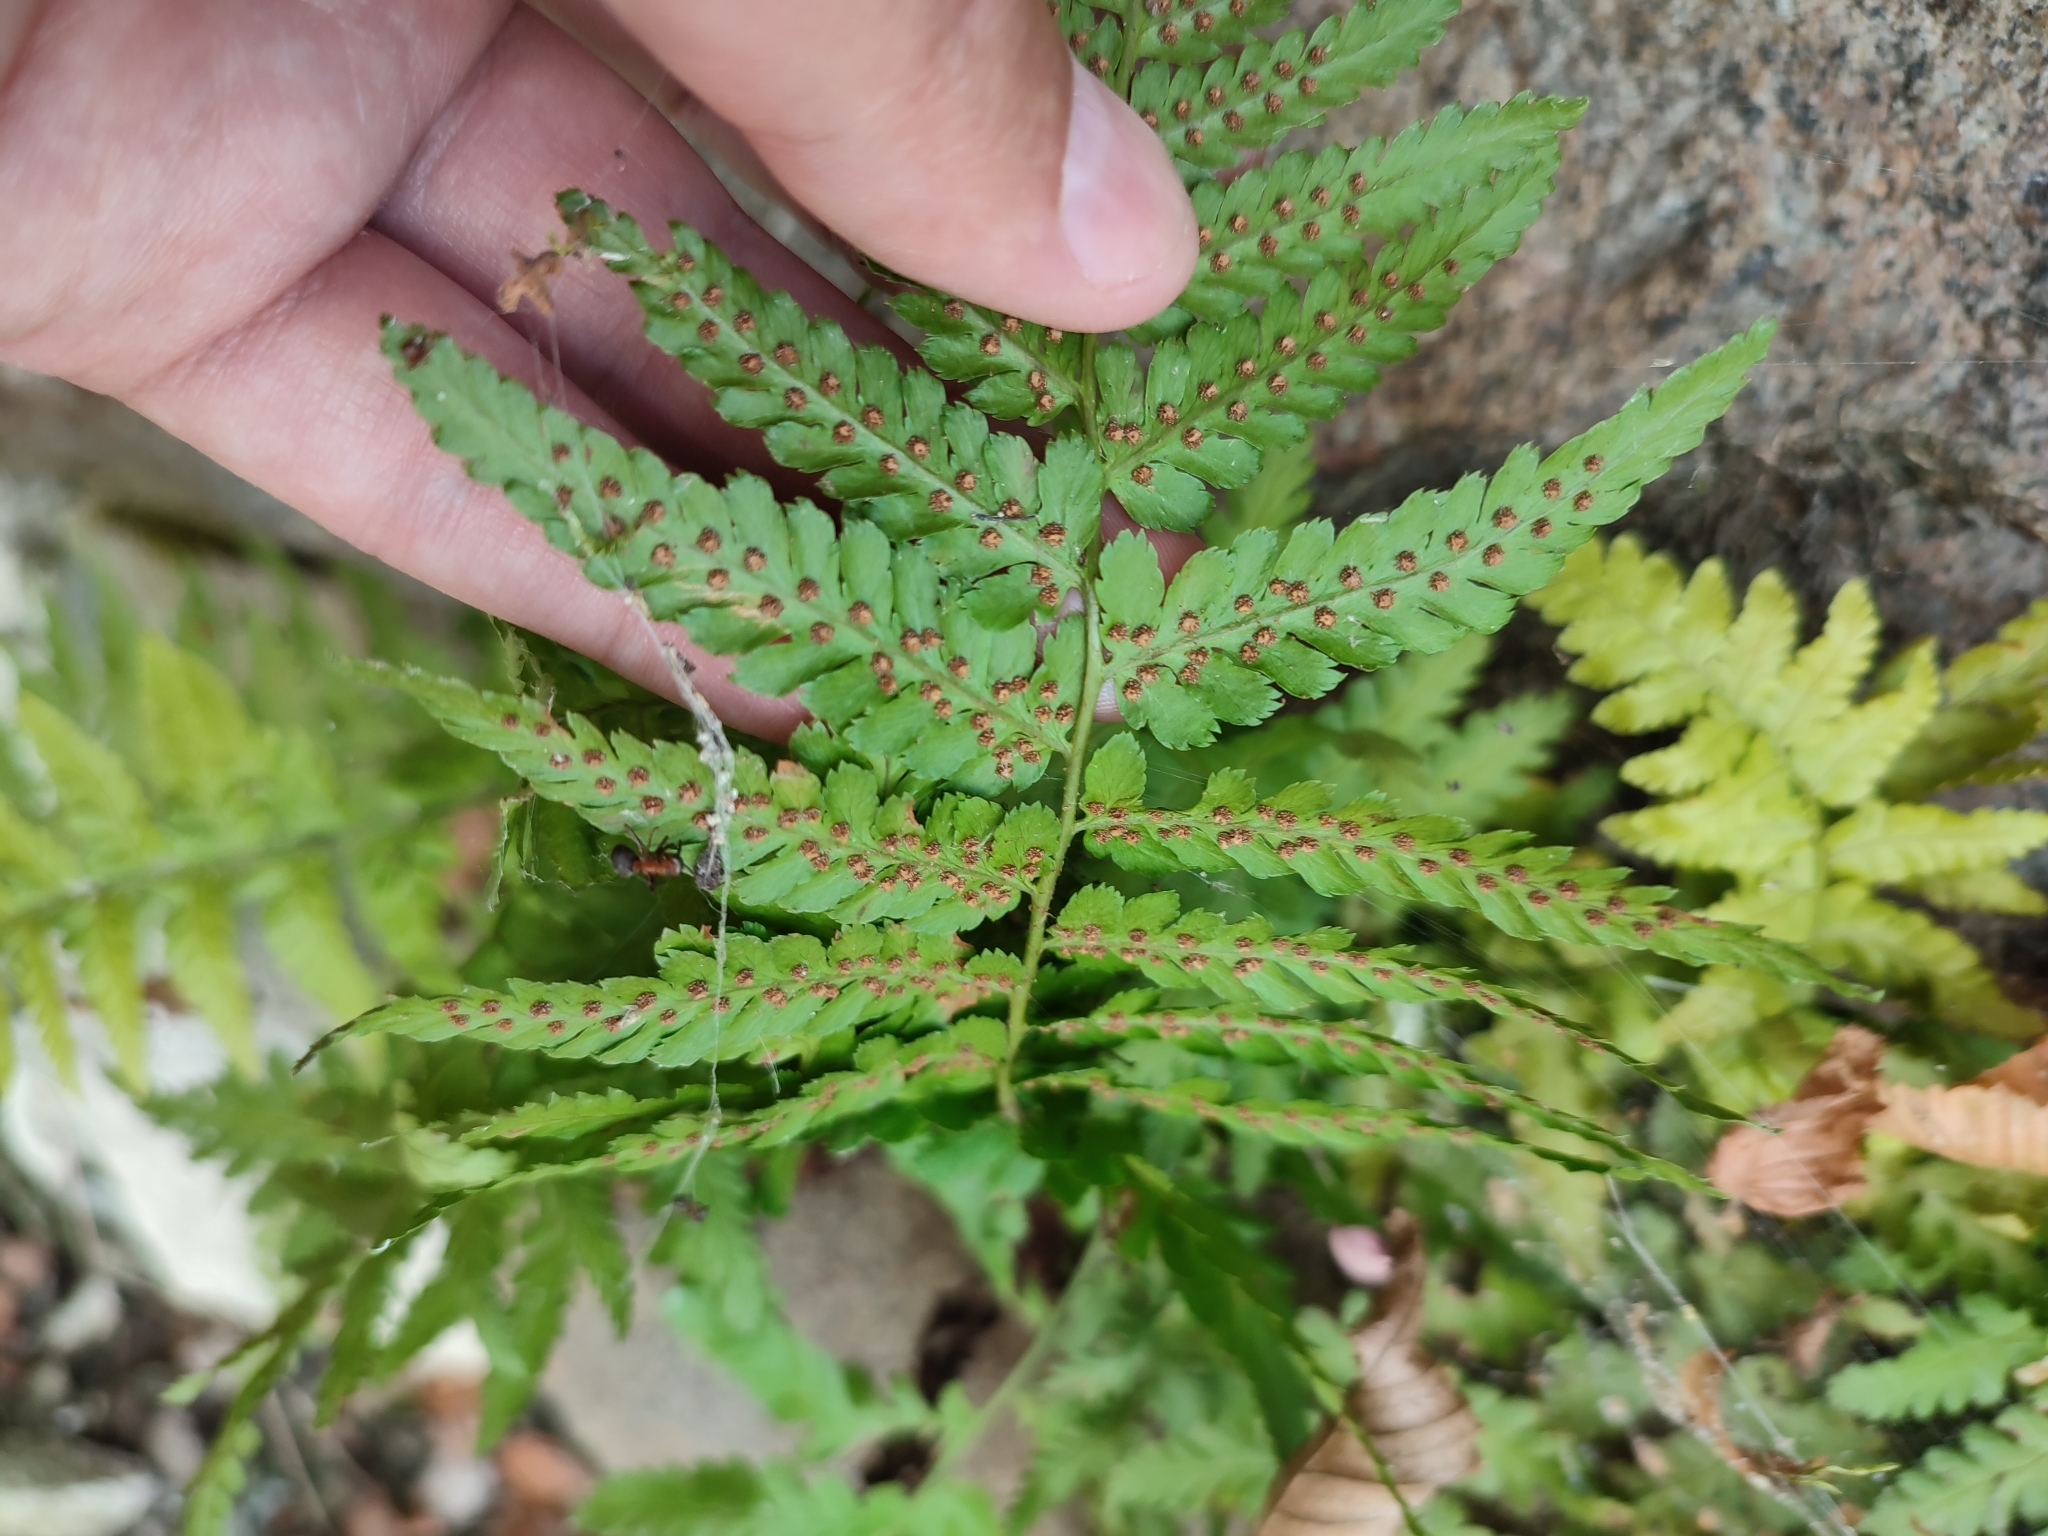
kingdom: Plantae
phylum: Tracheophyta
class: Polypodiopsida
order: Polypodiales
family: Dryopteridaceae
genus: Dryopteris
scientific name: Dryopteris filix-mas
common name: Male fern
